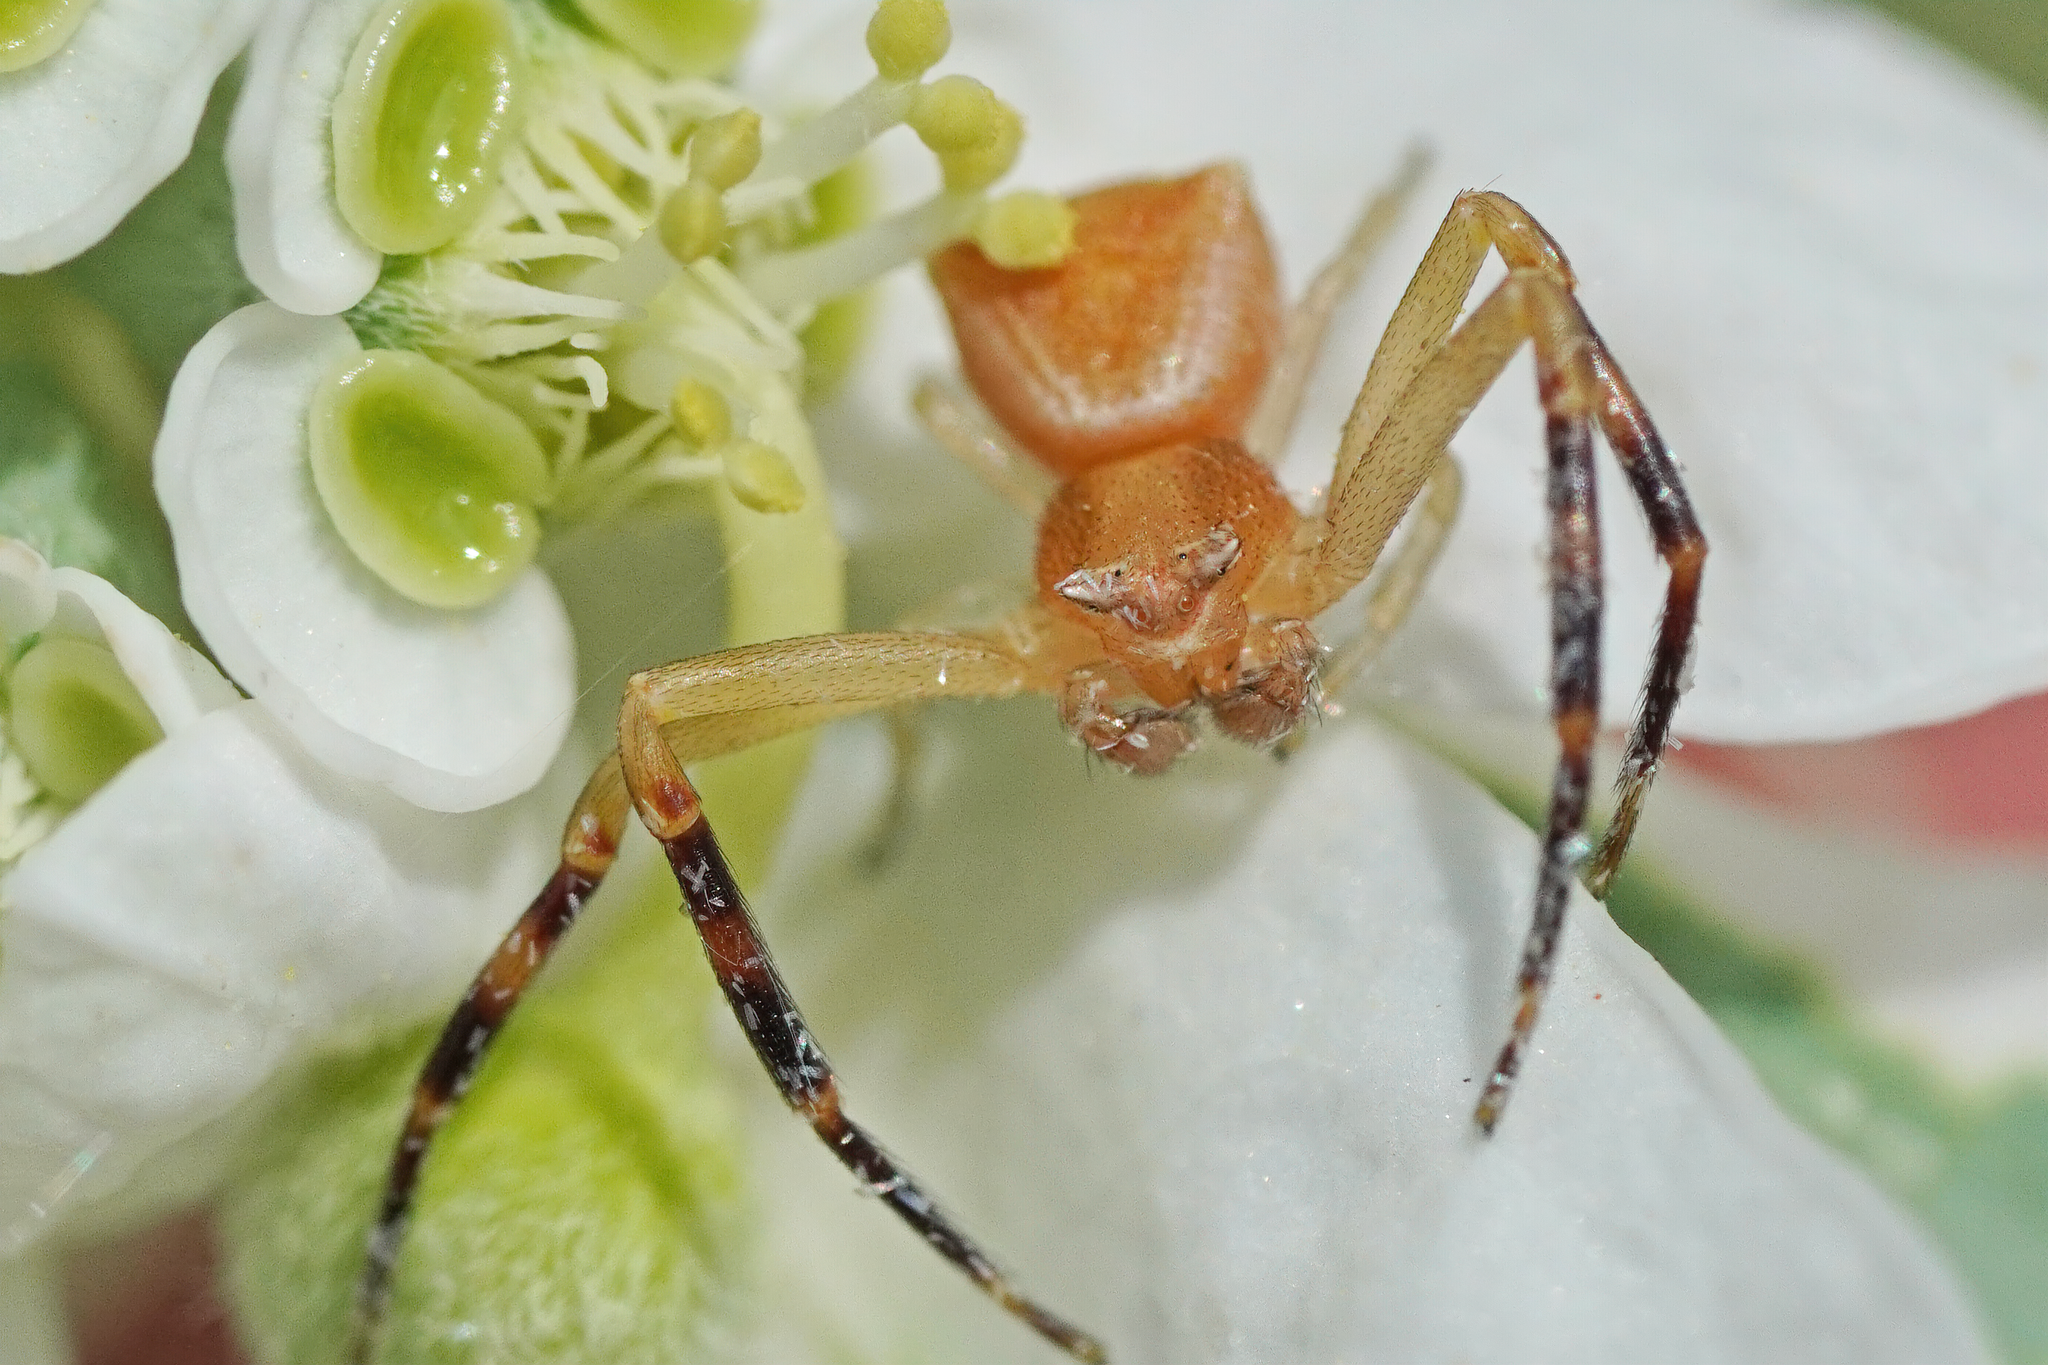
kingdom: Animalia
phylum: Arthropoda
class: Arachnida
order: Araneae
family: Thomisidae
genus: Thomisus
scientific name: Thomisus onustus
